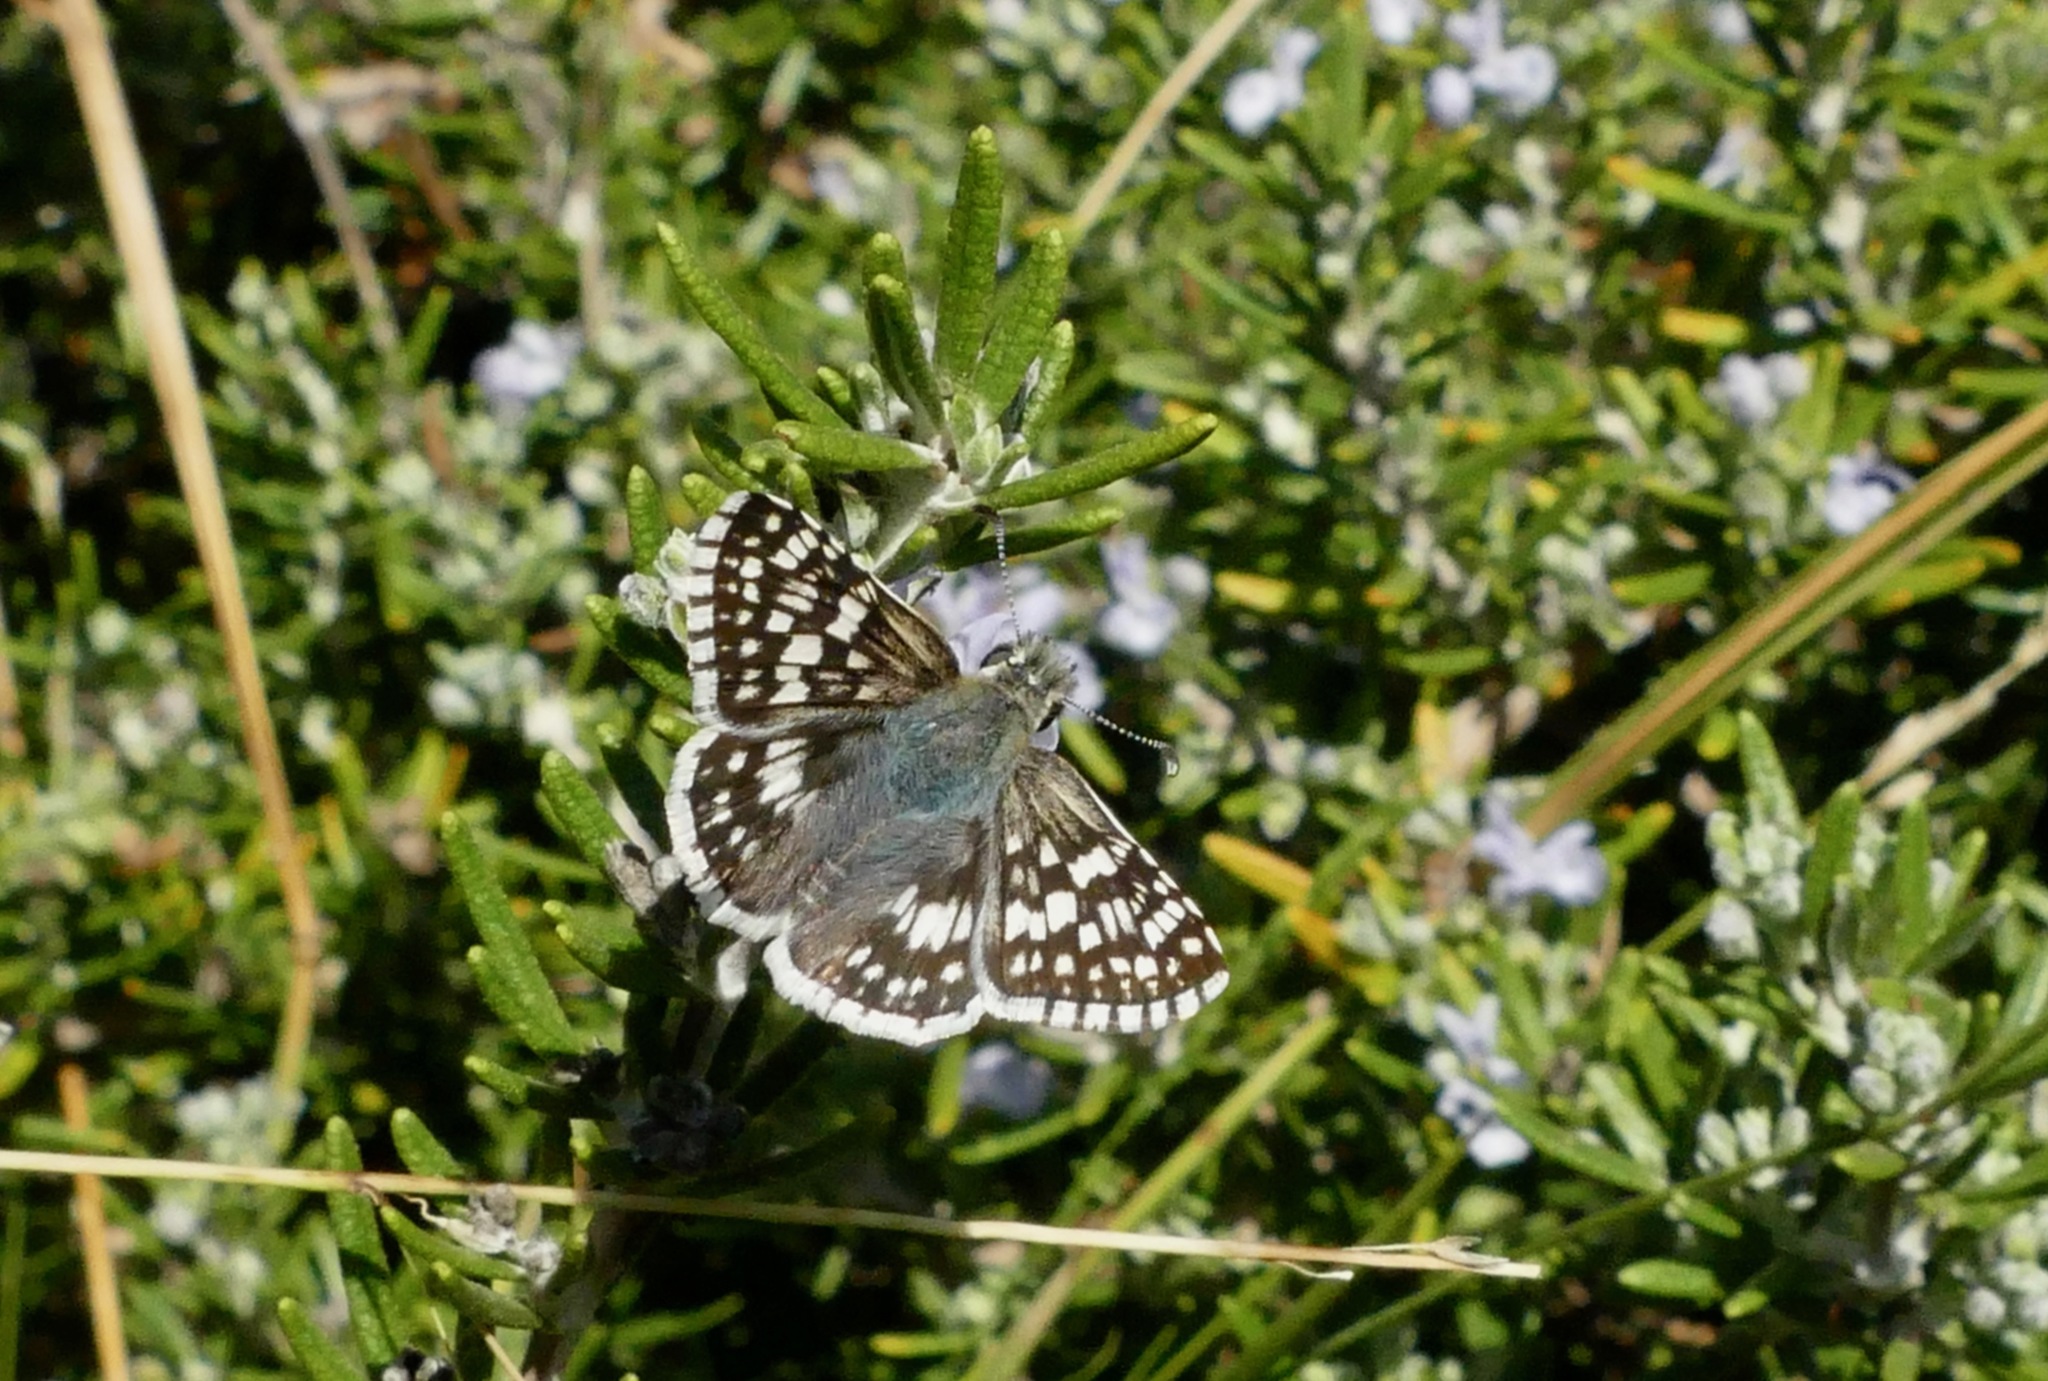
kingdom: Animalia
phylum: Arthropoda
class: Insecta
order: Lepidoptera
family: Hesperiidae
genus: Burnsius
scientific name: Burnsius communis
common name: Common checkered-skipper
